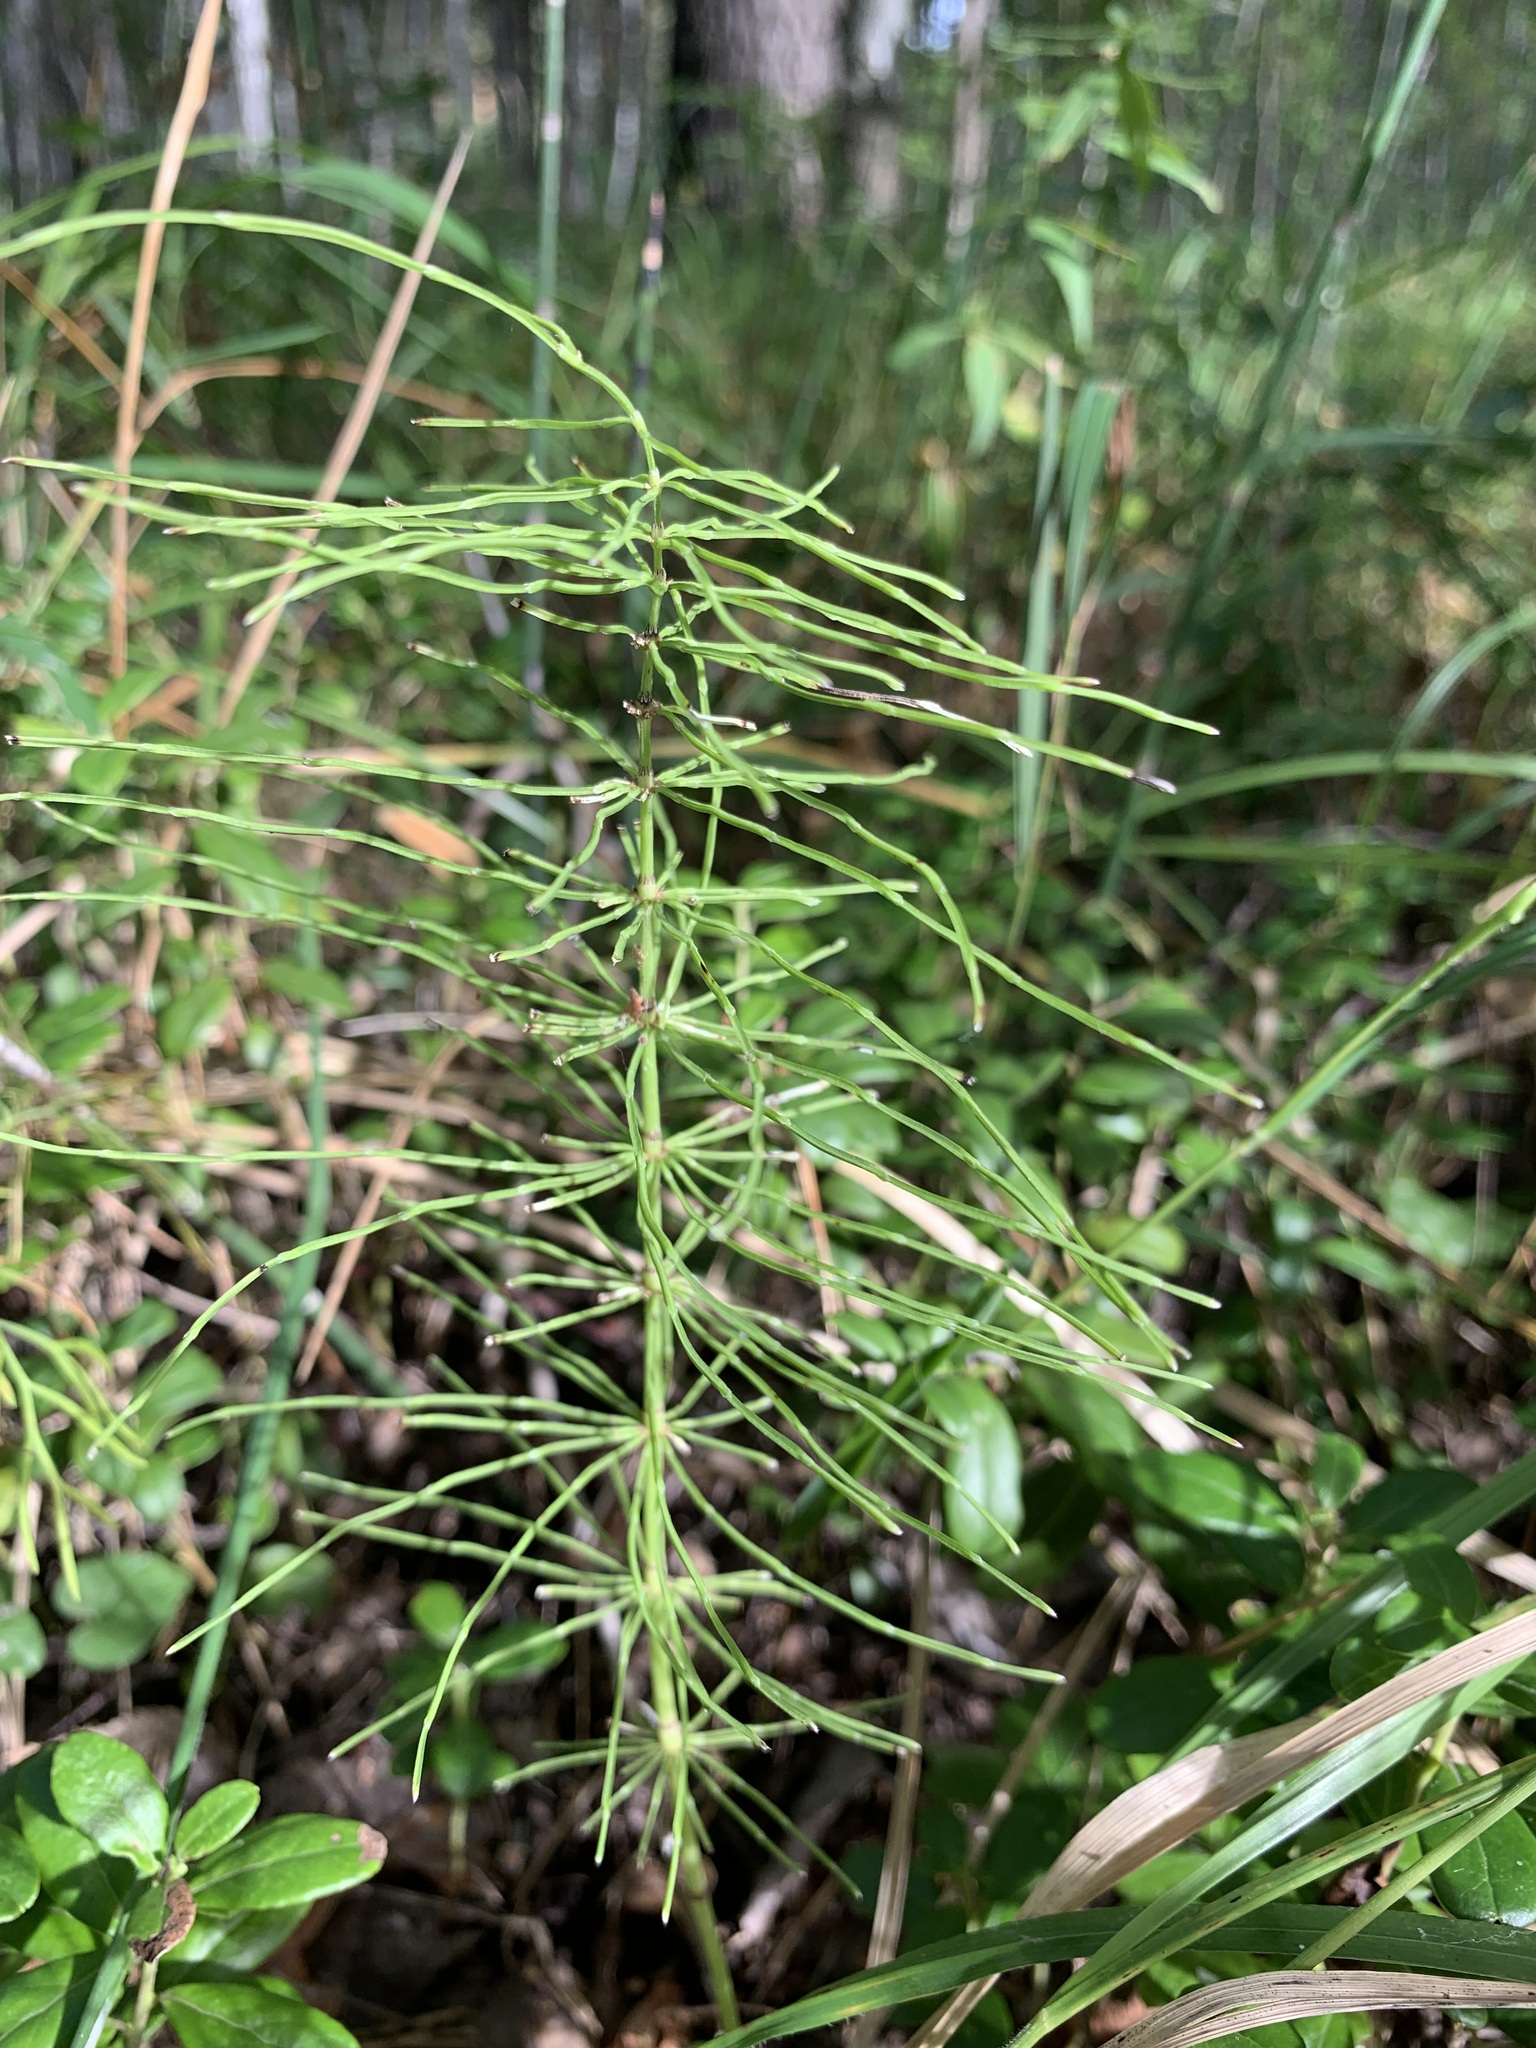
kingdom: Plantae
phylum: Tracheophyta
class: Polypodiopsida
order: Equisetales
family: Equisetaceae
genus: Equisetum
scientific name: Equisetum pratense
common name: Meadow horsetail
